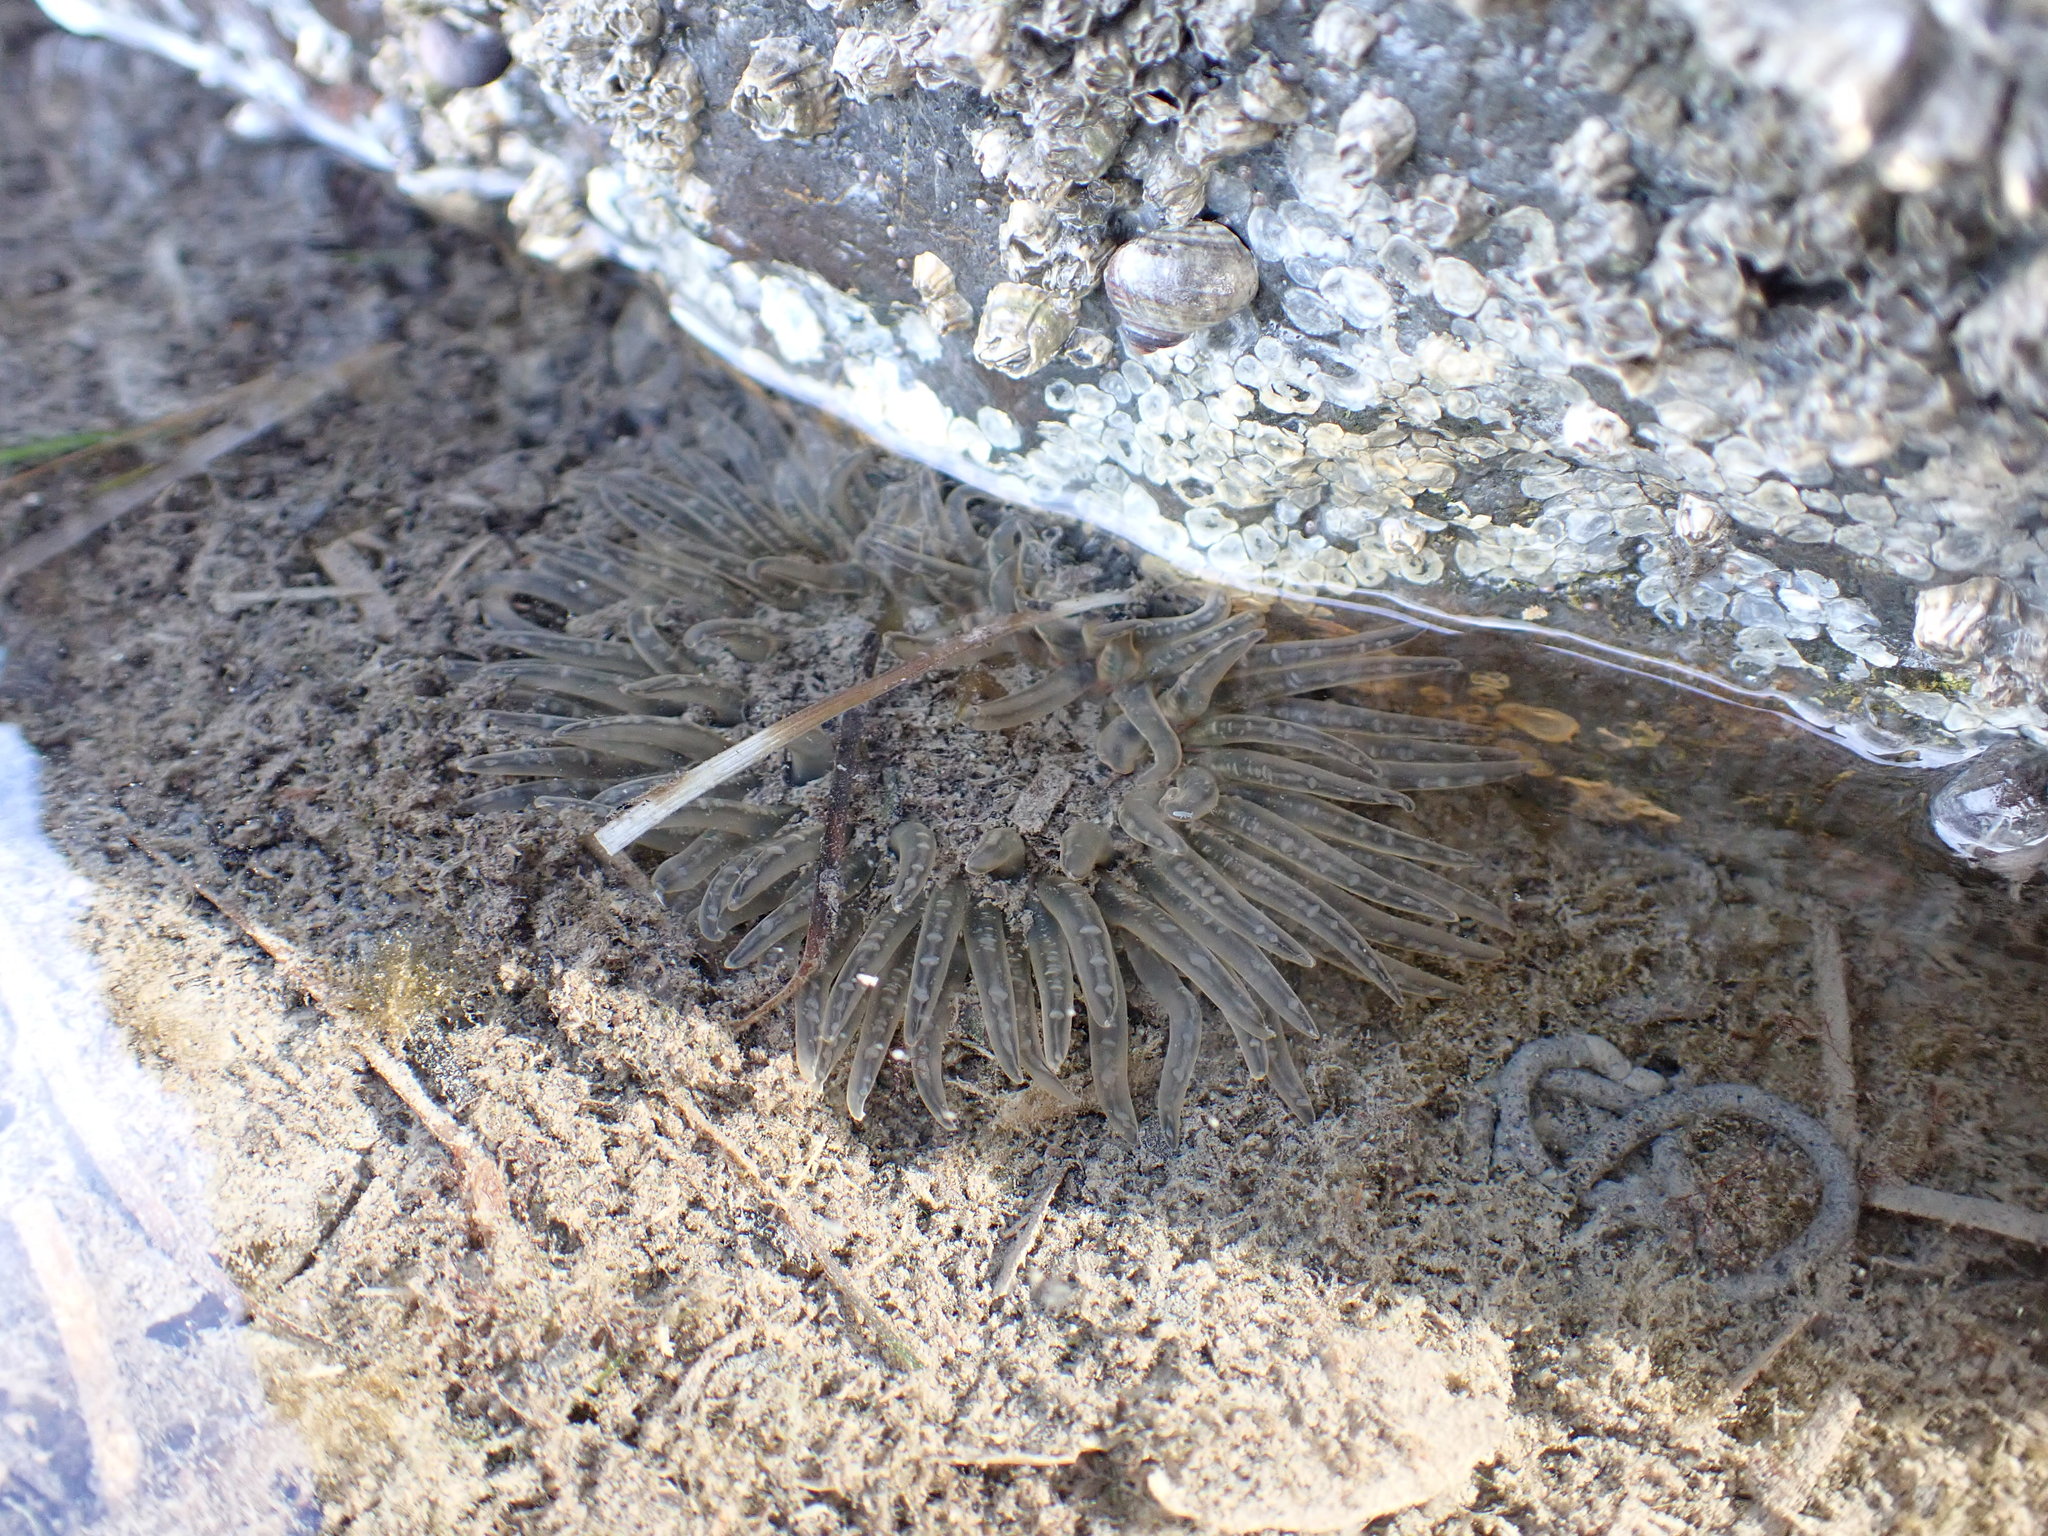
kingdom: Animalia
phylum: Cnidaria
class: Anthozoa
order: Actiniaria
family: Actiniidae
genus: Anthopleura
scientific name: Anthopleura artemisia
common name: Buried sea anemone
